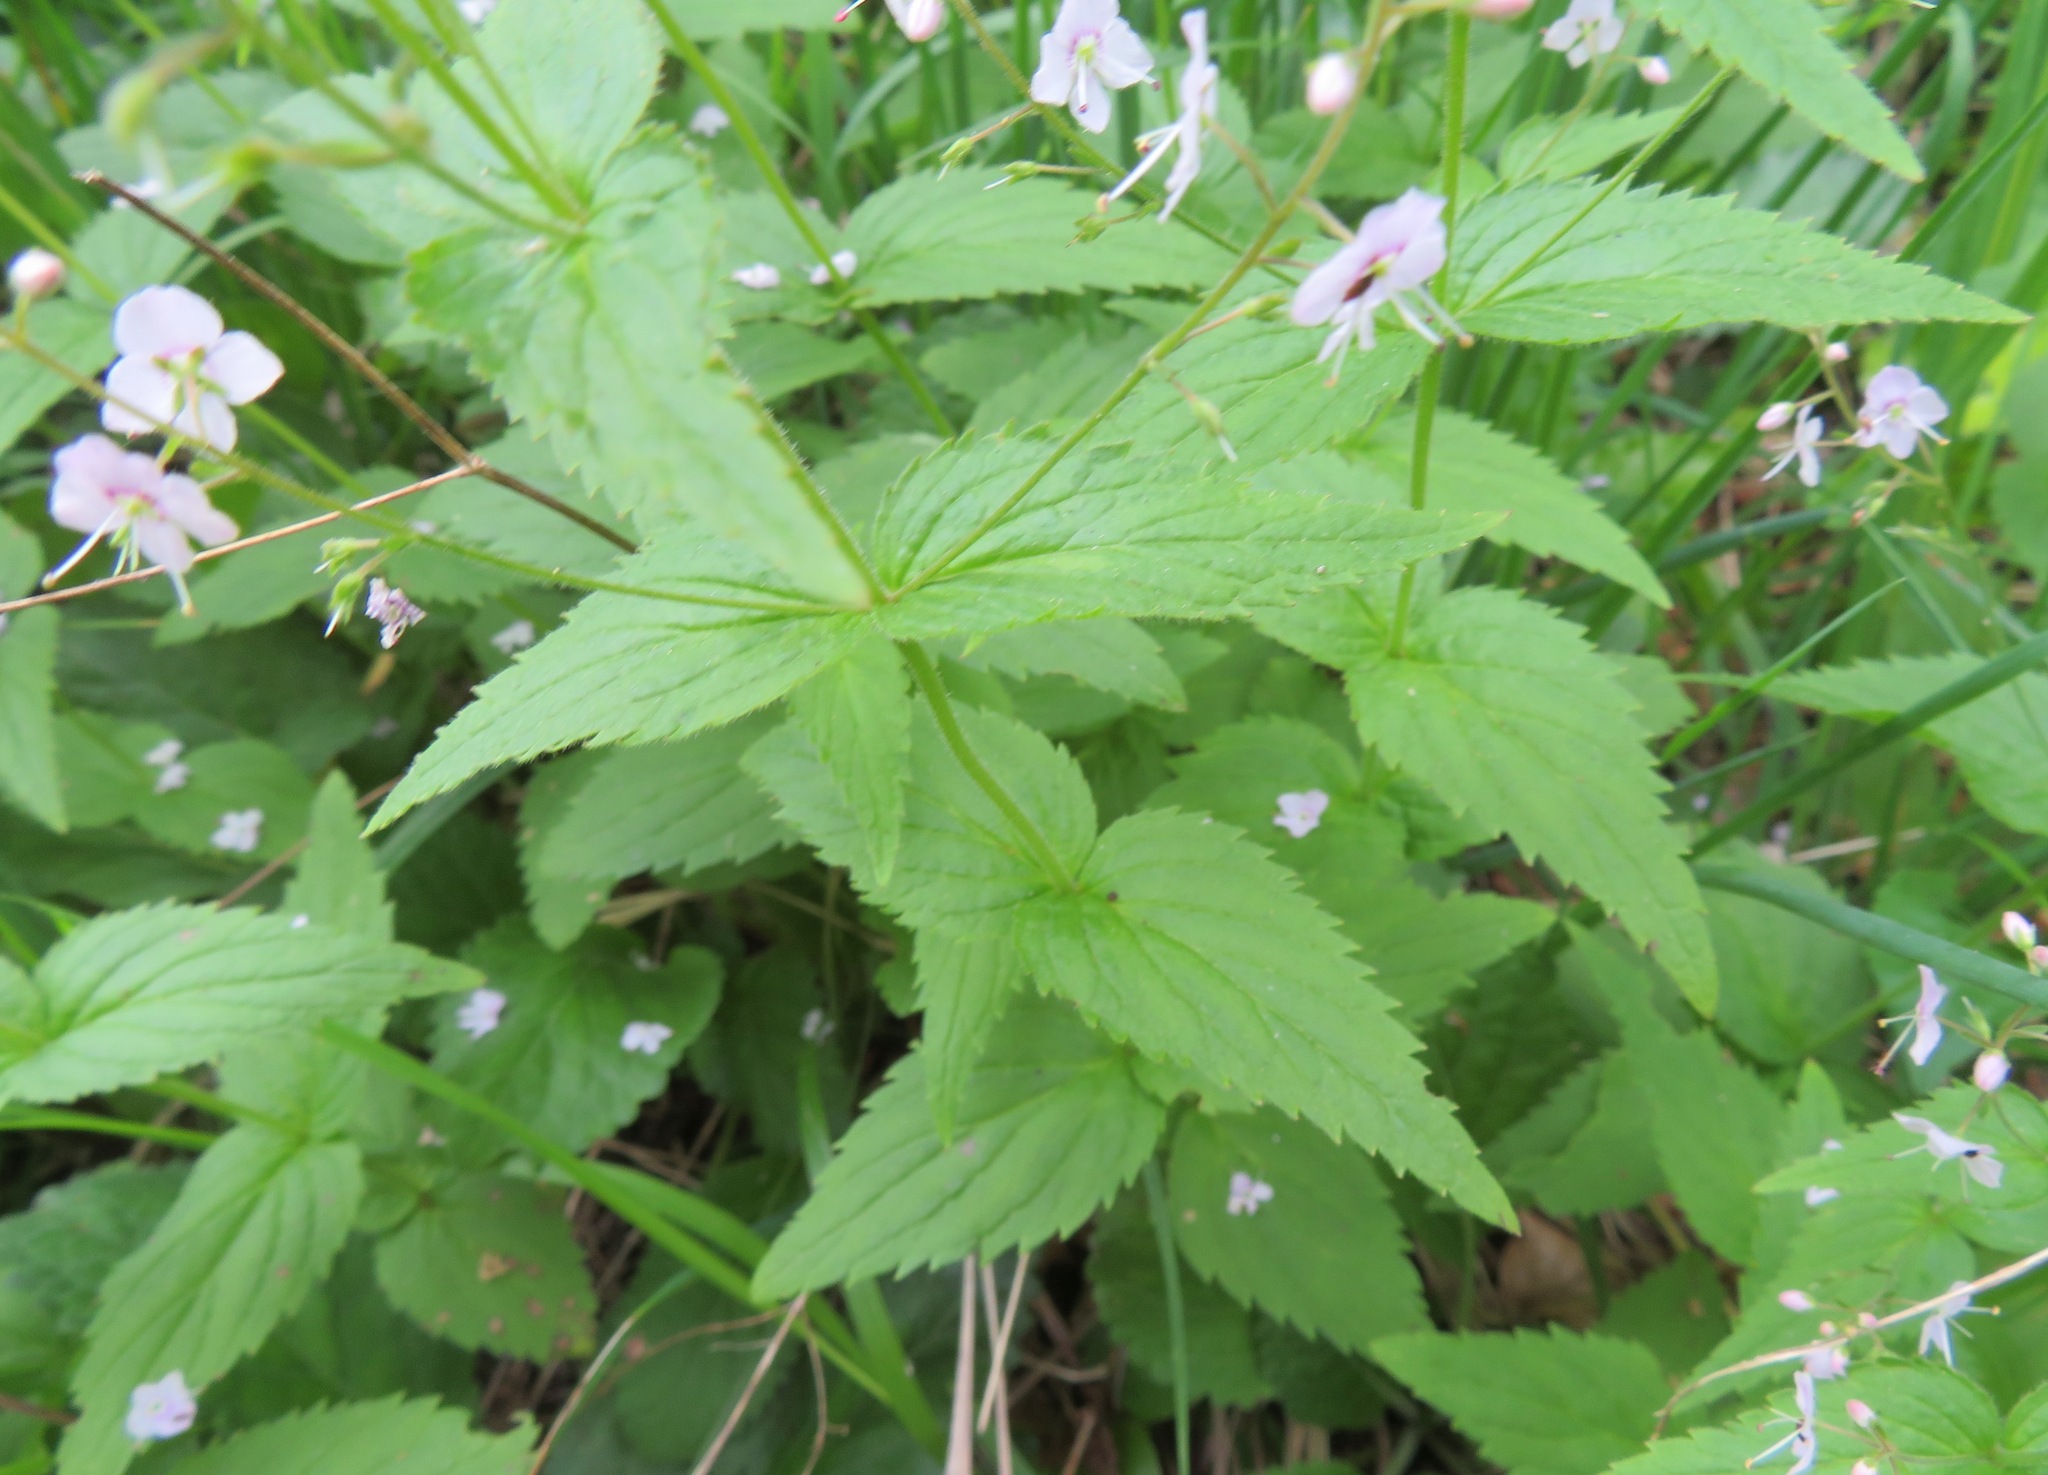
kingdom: Plantae
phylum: Tracheophyta
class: Magnoliopsida
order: Lamiales
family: Plantaginaceae
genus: Veronica
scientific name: Veronica urticifolia
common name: Nettle-leaf speedwell
